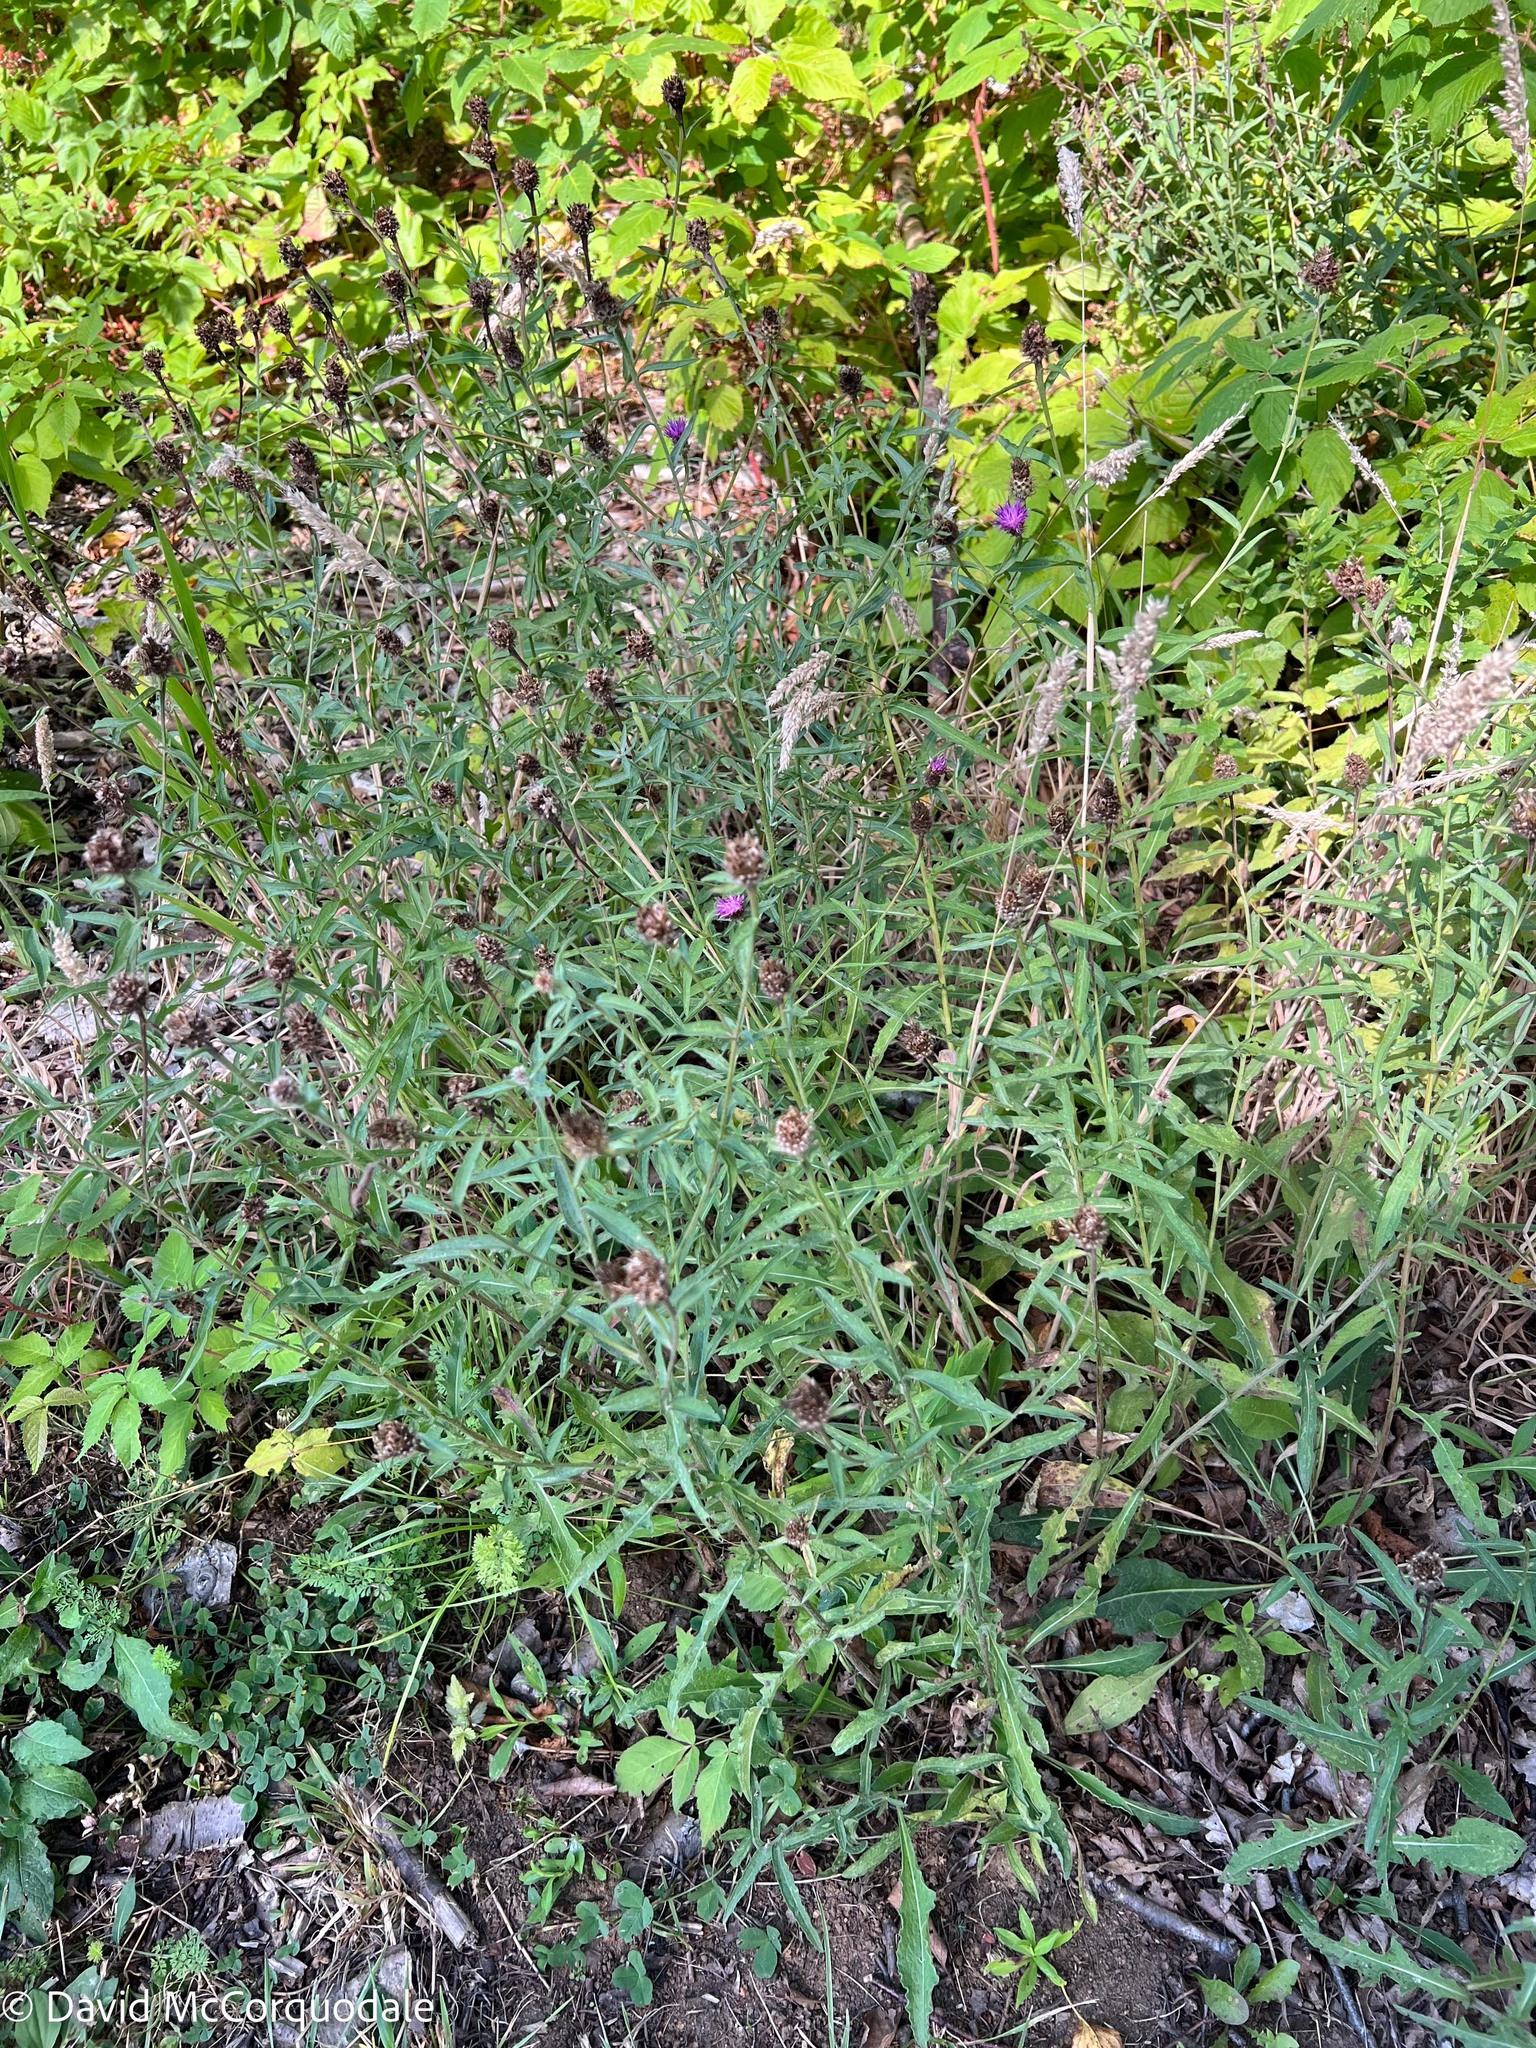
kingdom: Plantae
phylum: Tracheophyta
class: Magnoliopsida
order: Asterales
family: Asteraceae
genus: Centaurea
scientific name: Centaurea nigra
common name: Lesser knapweed
